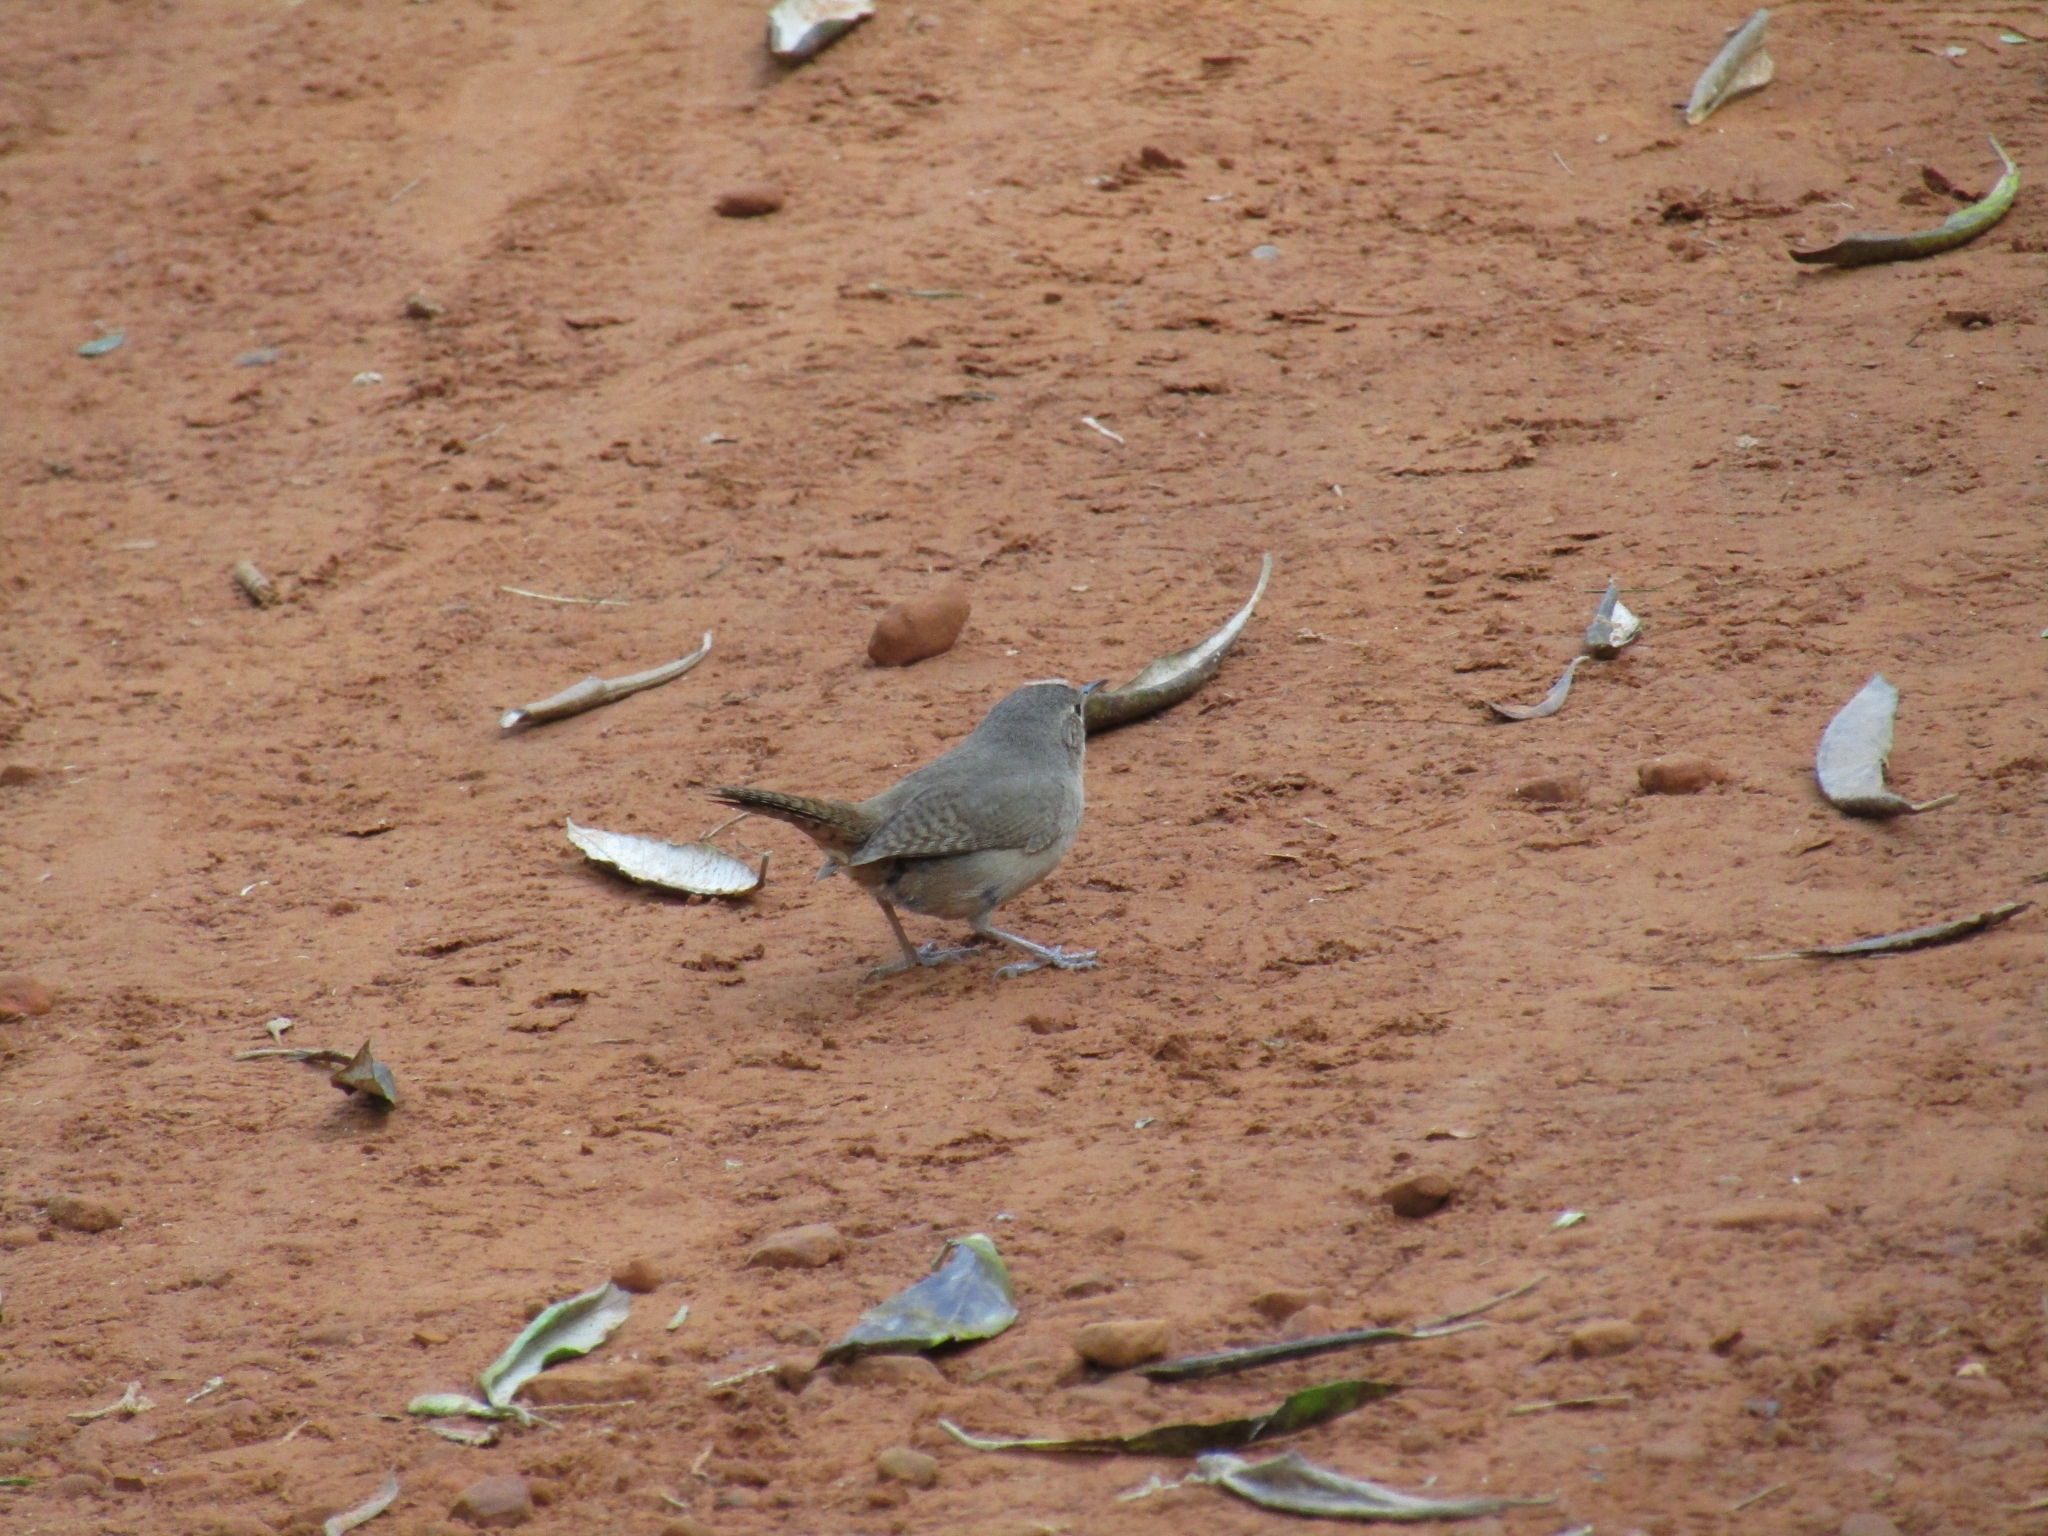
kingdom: Animalia
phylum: Chordata
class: Aves
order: Passeriformes
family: Troglodytidae
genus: Troglodytes
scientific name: Troglodytes aedon
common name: House wren
